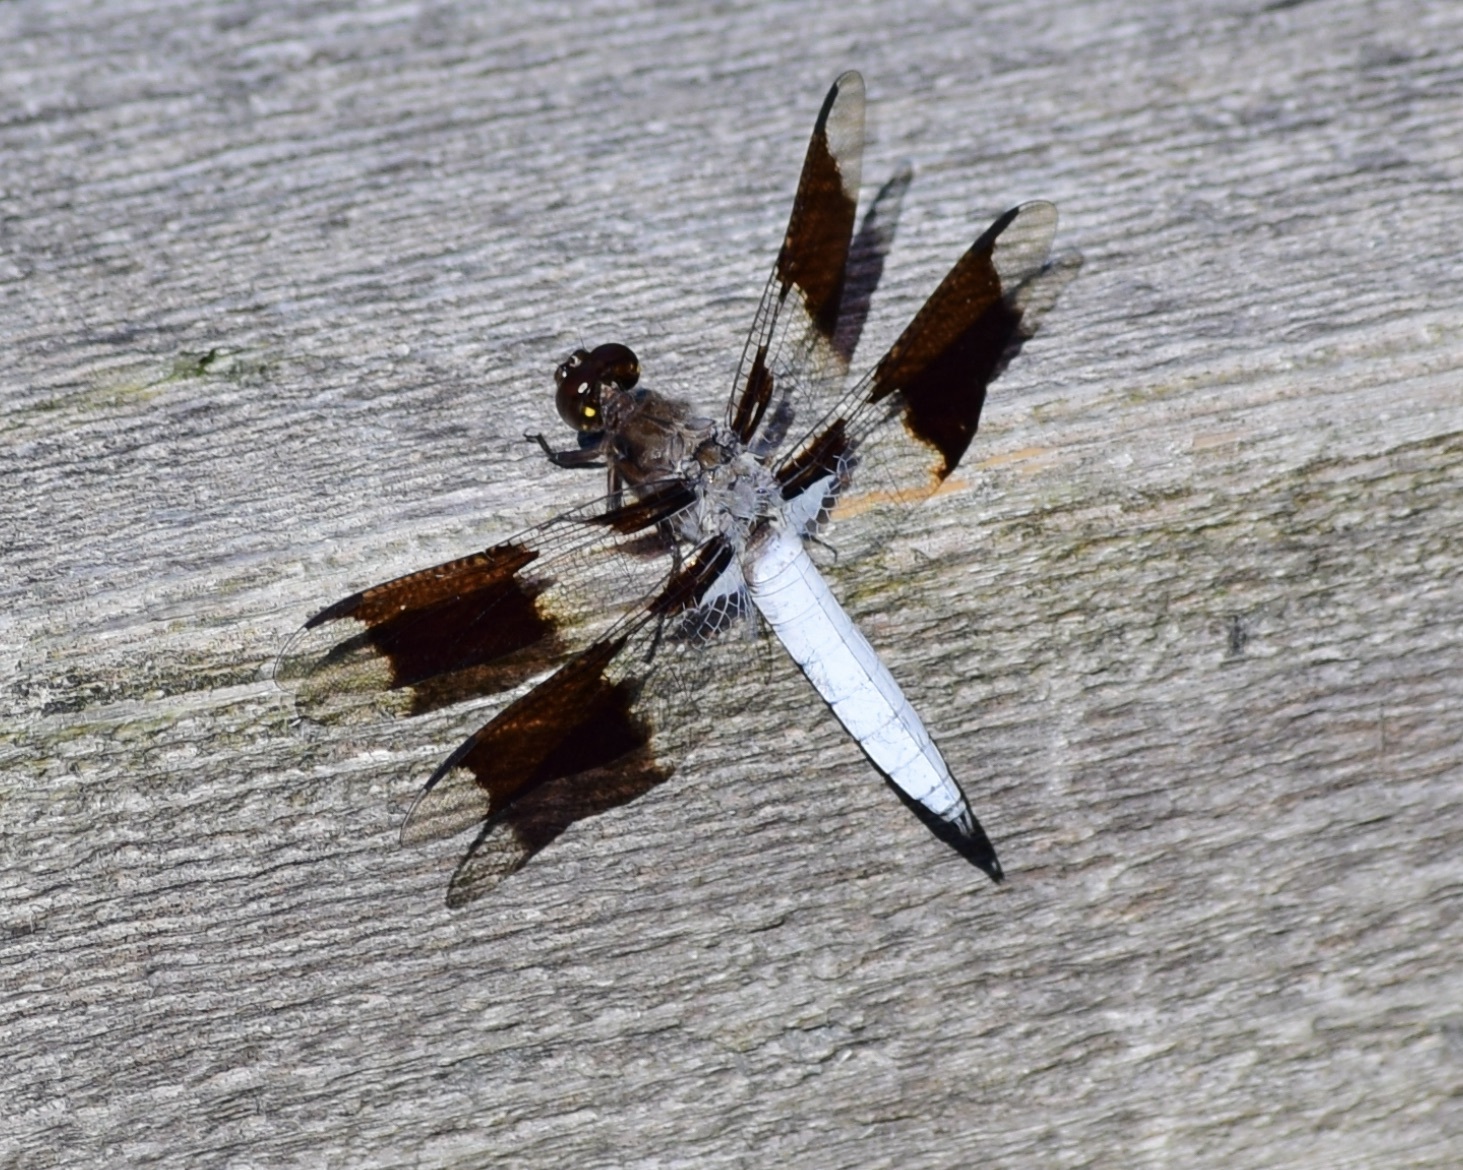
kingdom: Animalia
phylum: Arthropoda
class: Insecta
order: Odonata
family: Libellulidae
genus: Plathemis
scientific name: Plathemis lydia
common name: Common whitetail
